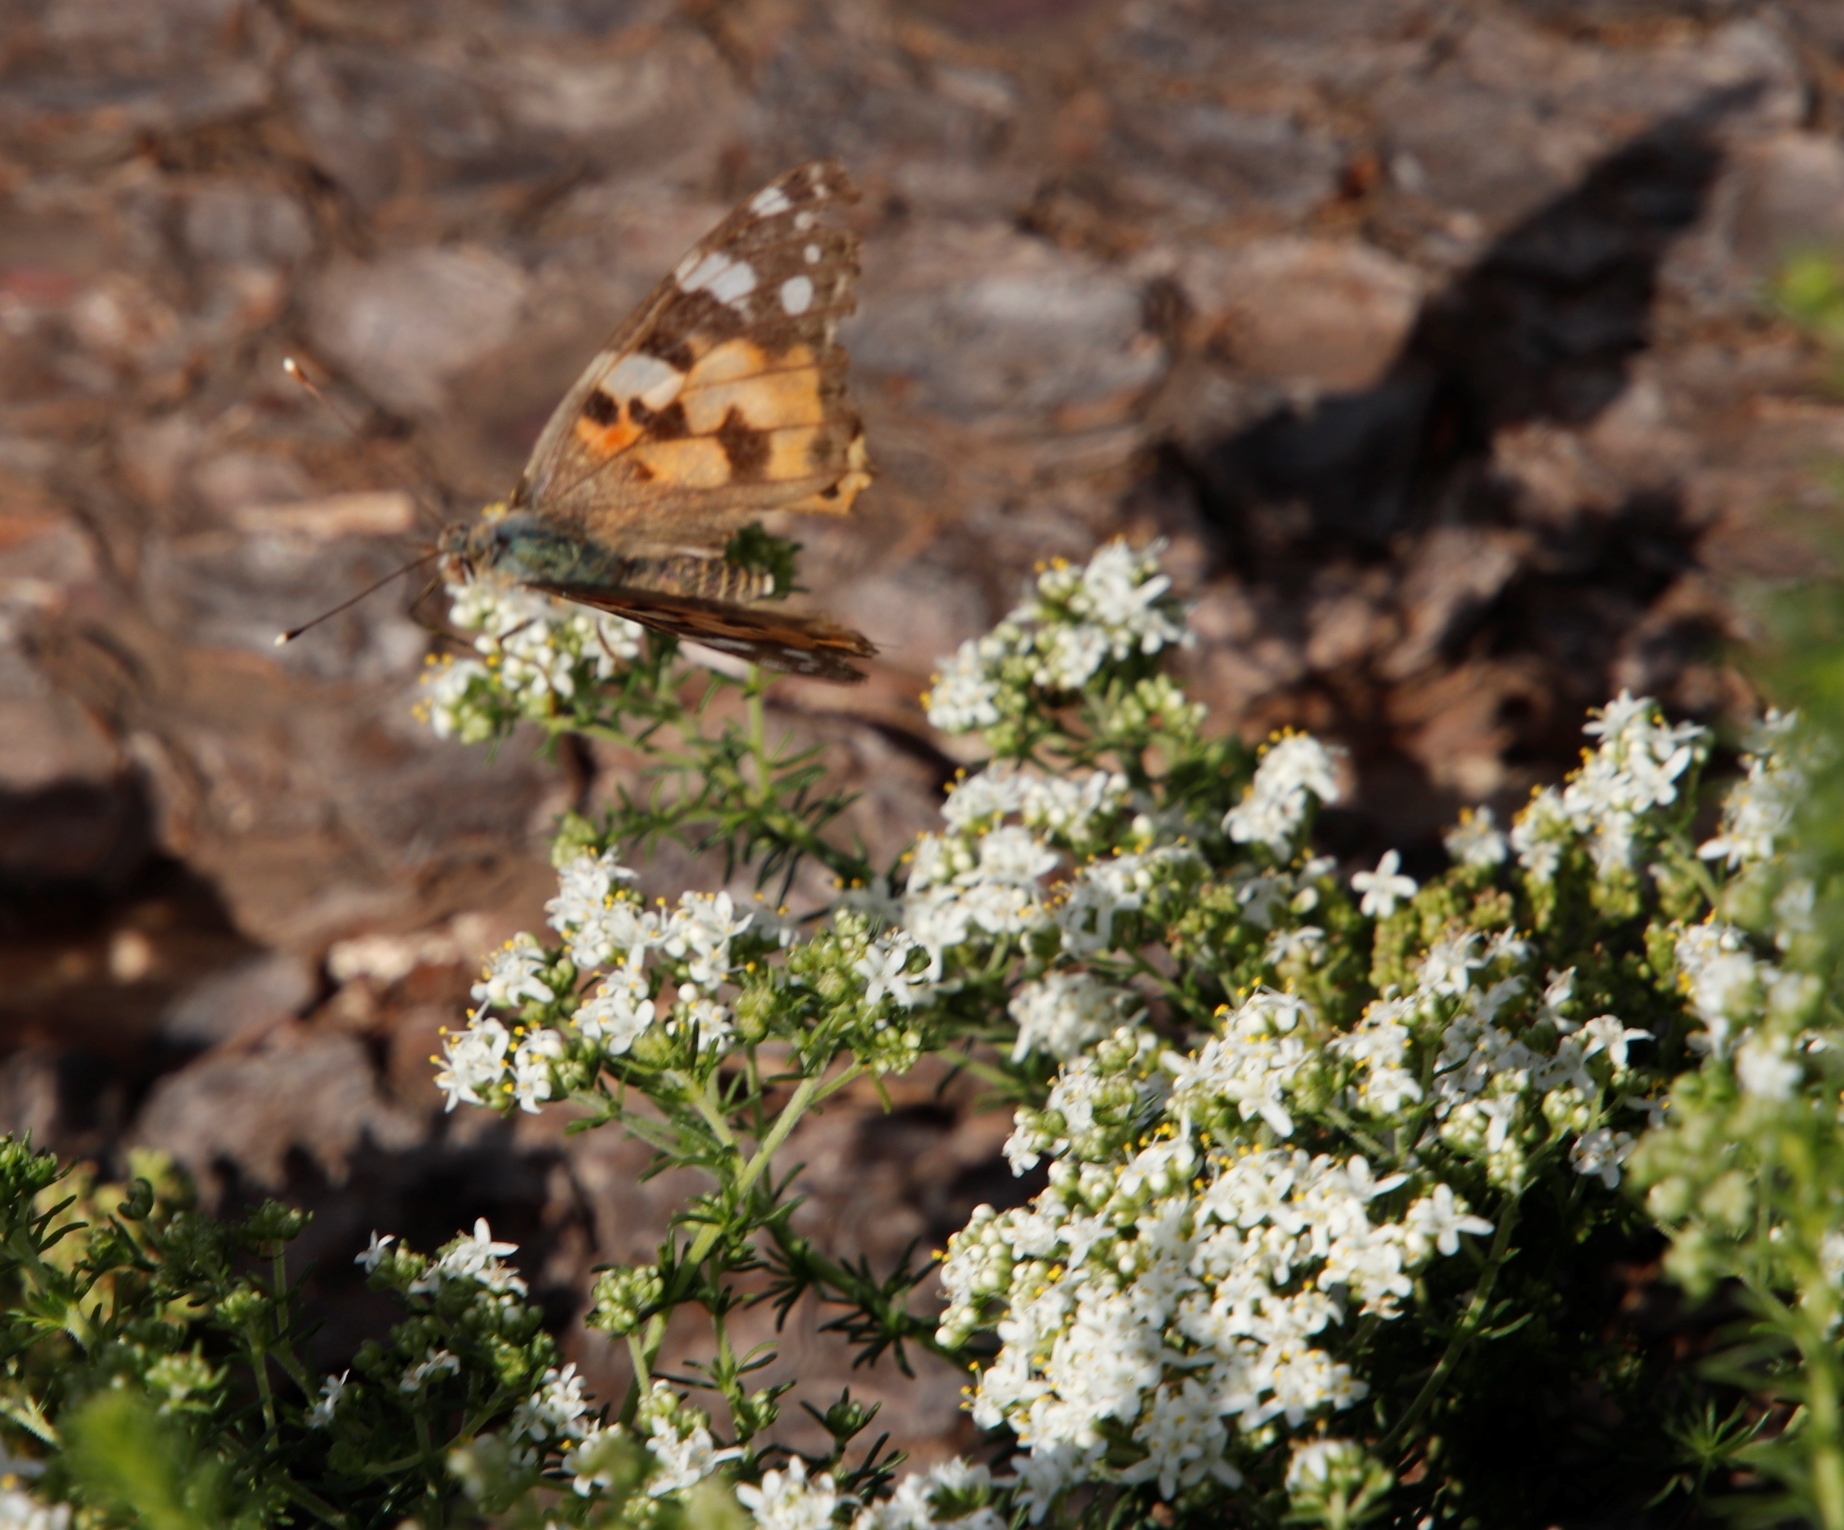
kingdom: Animalia
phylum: Arthropoda
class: Insecta
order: Lepidoptera
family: Nymphalidae
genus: Vanessa
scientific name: Vanessa cardui
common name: Painted lady
